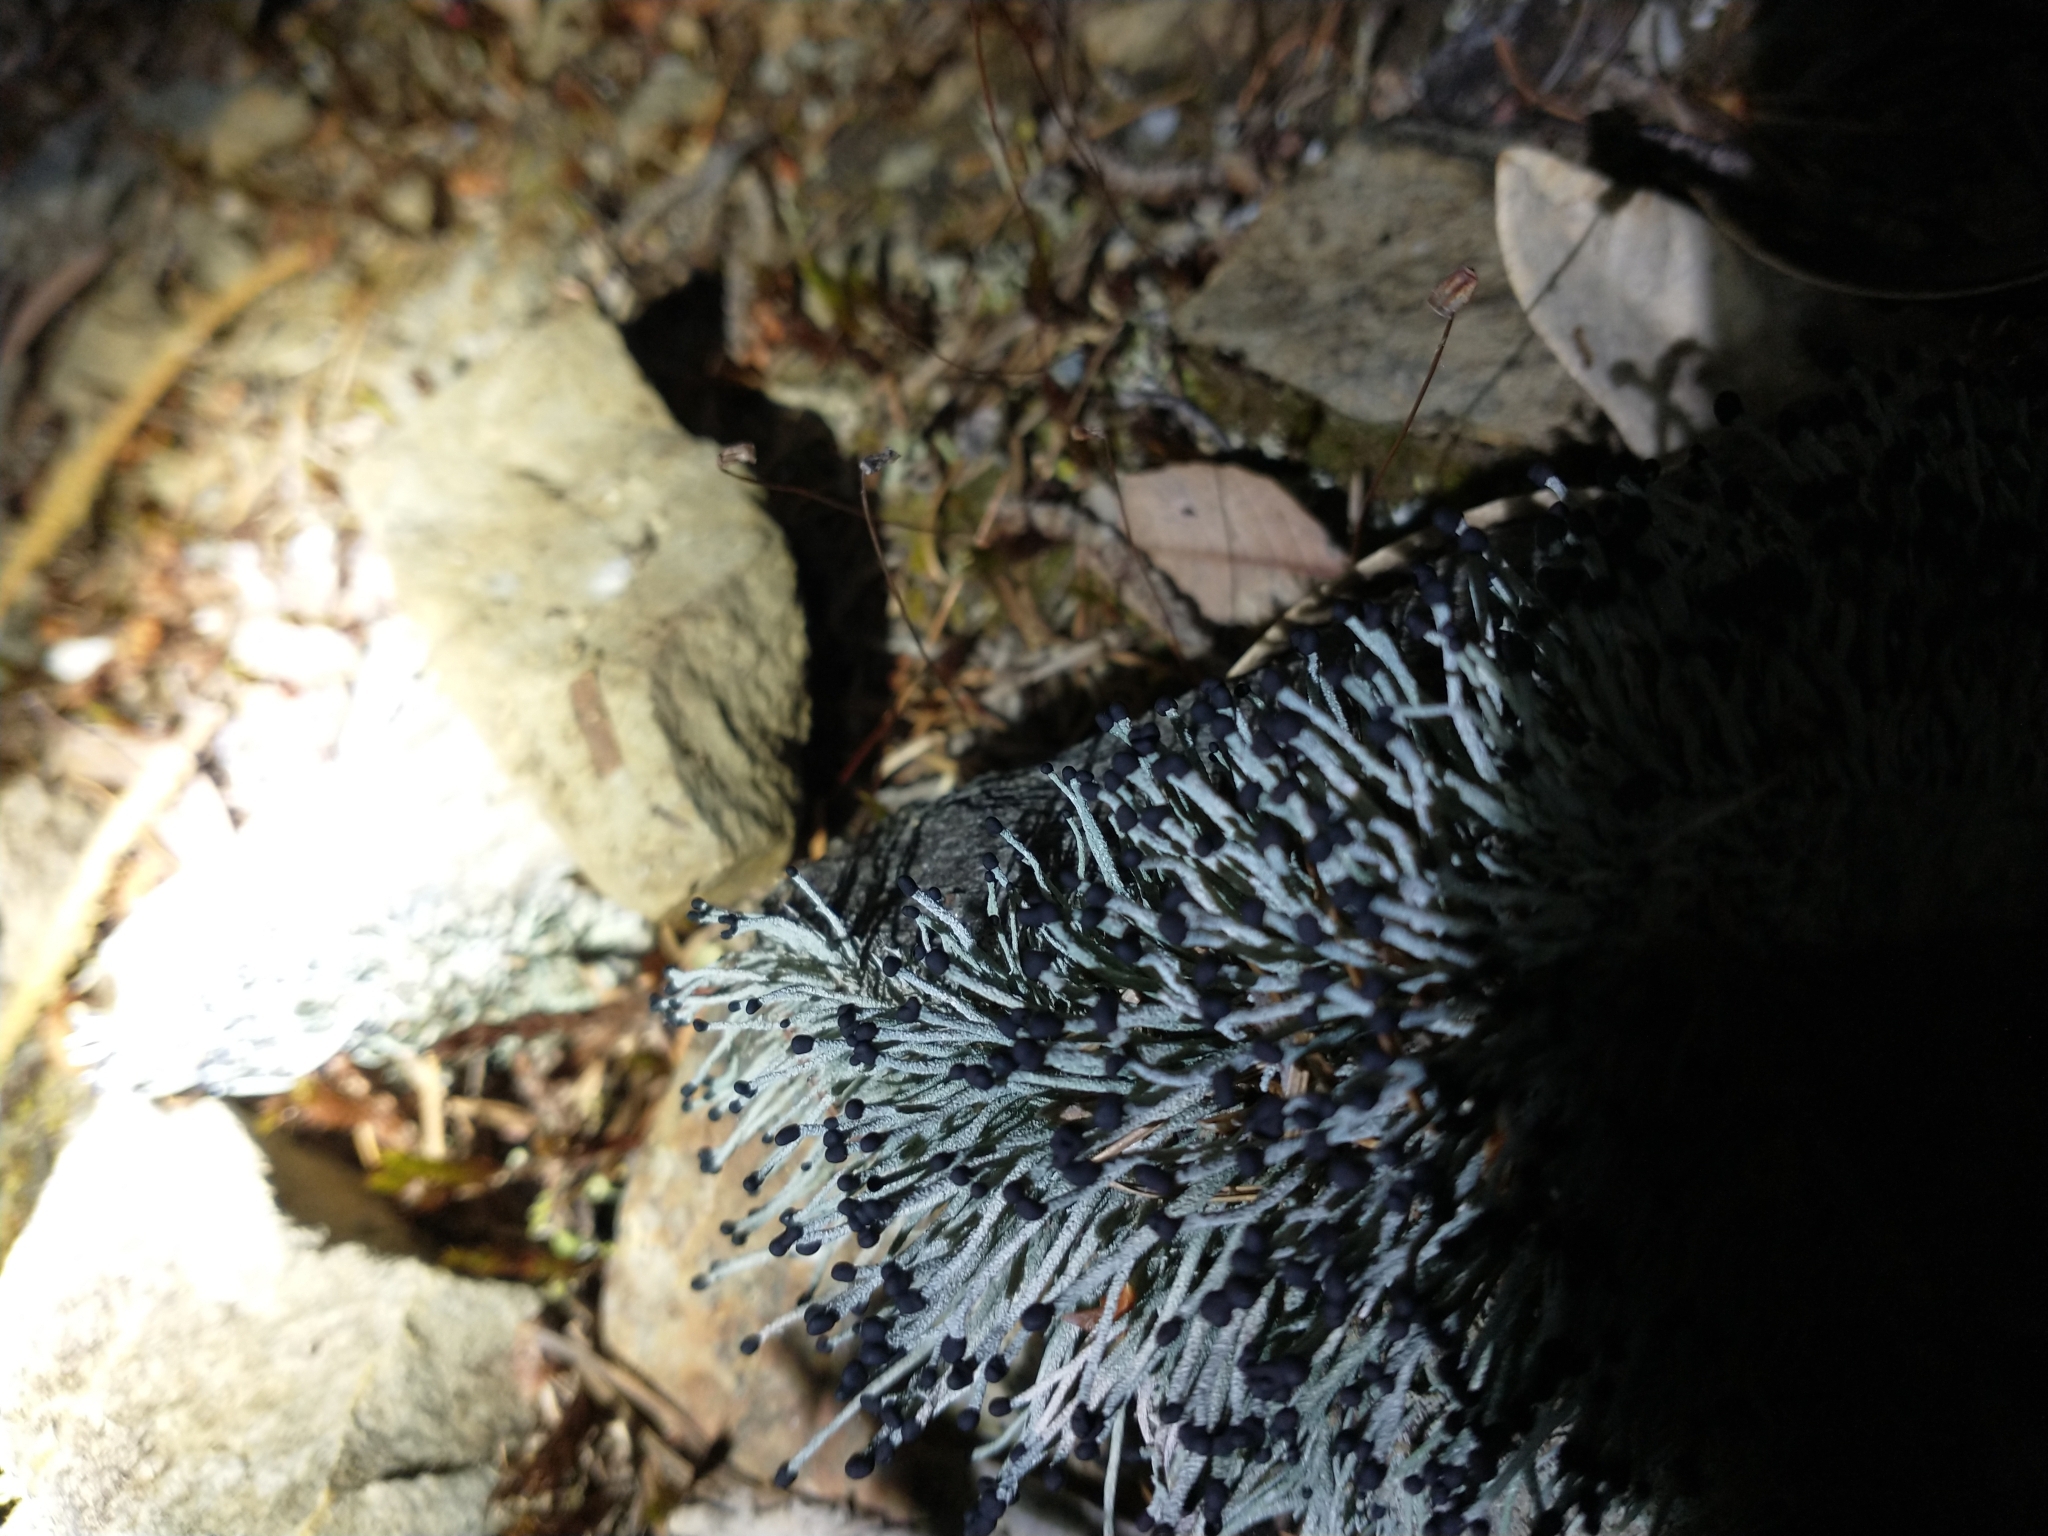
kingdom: Fungi
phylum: Ascomycota
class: Lecanoromycetes
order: Lecanorales
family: Cladoniaceae
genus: Pilophorus
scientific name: Pilophorus acicularis
